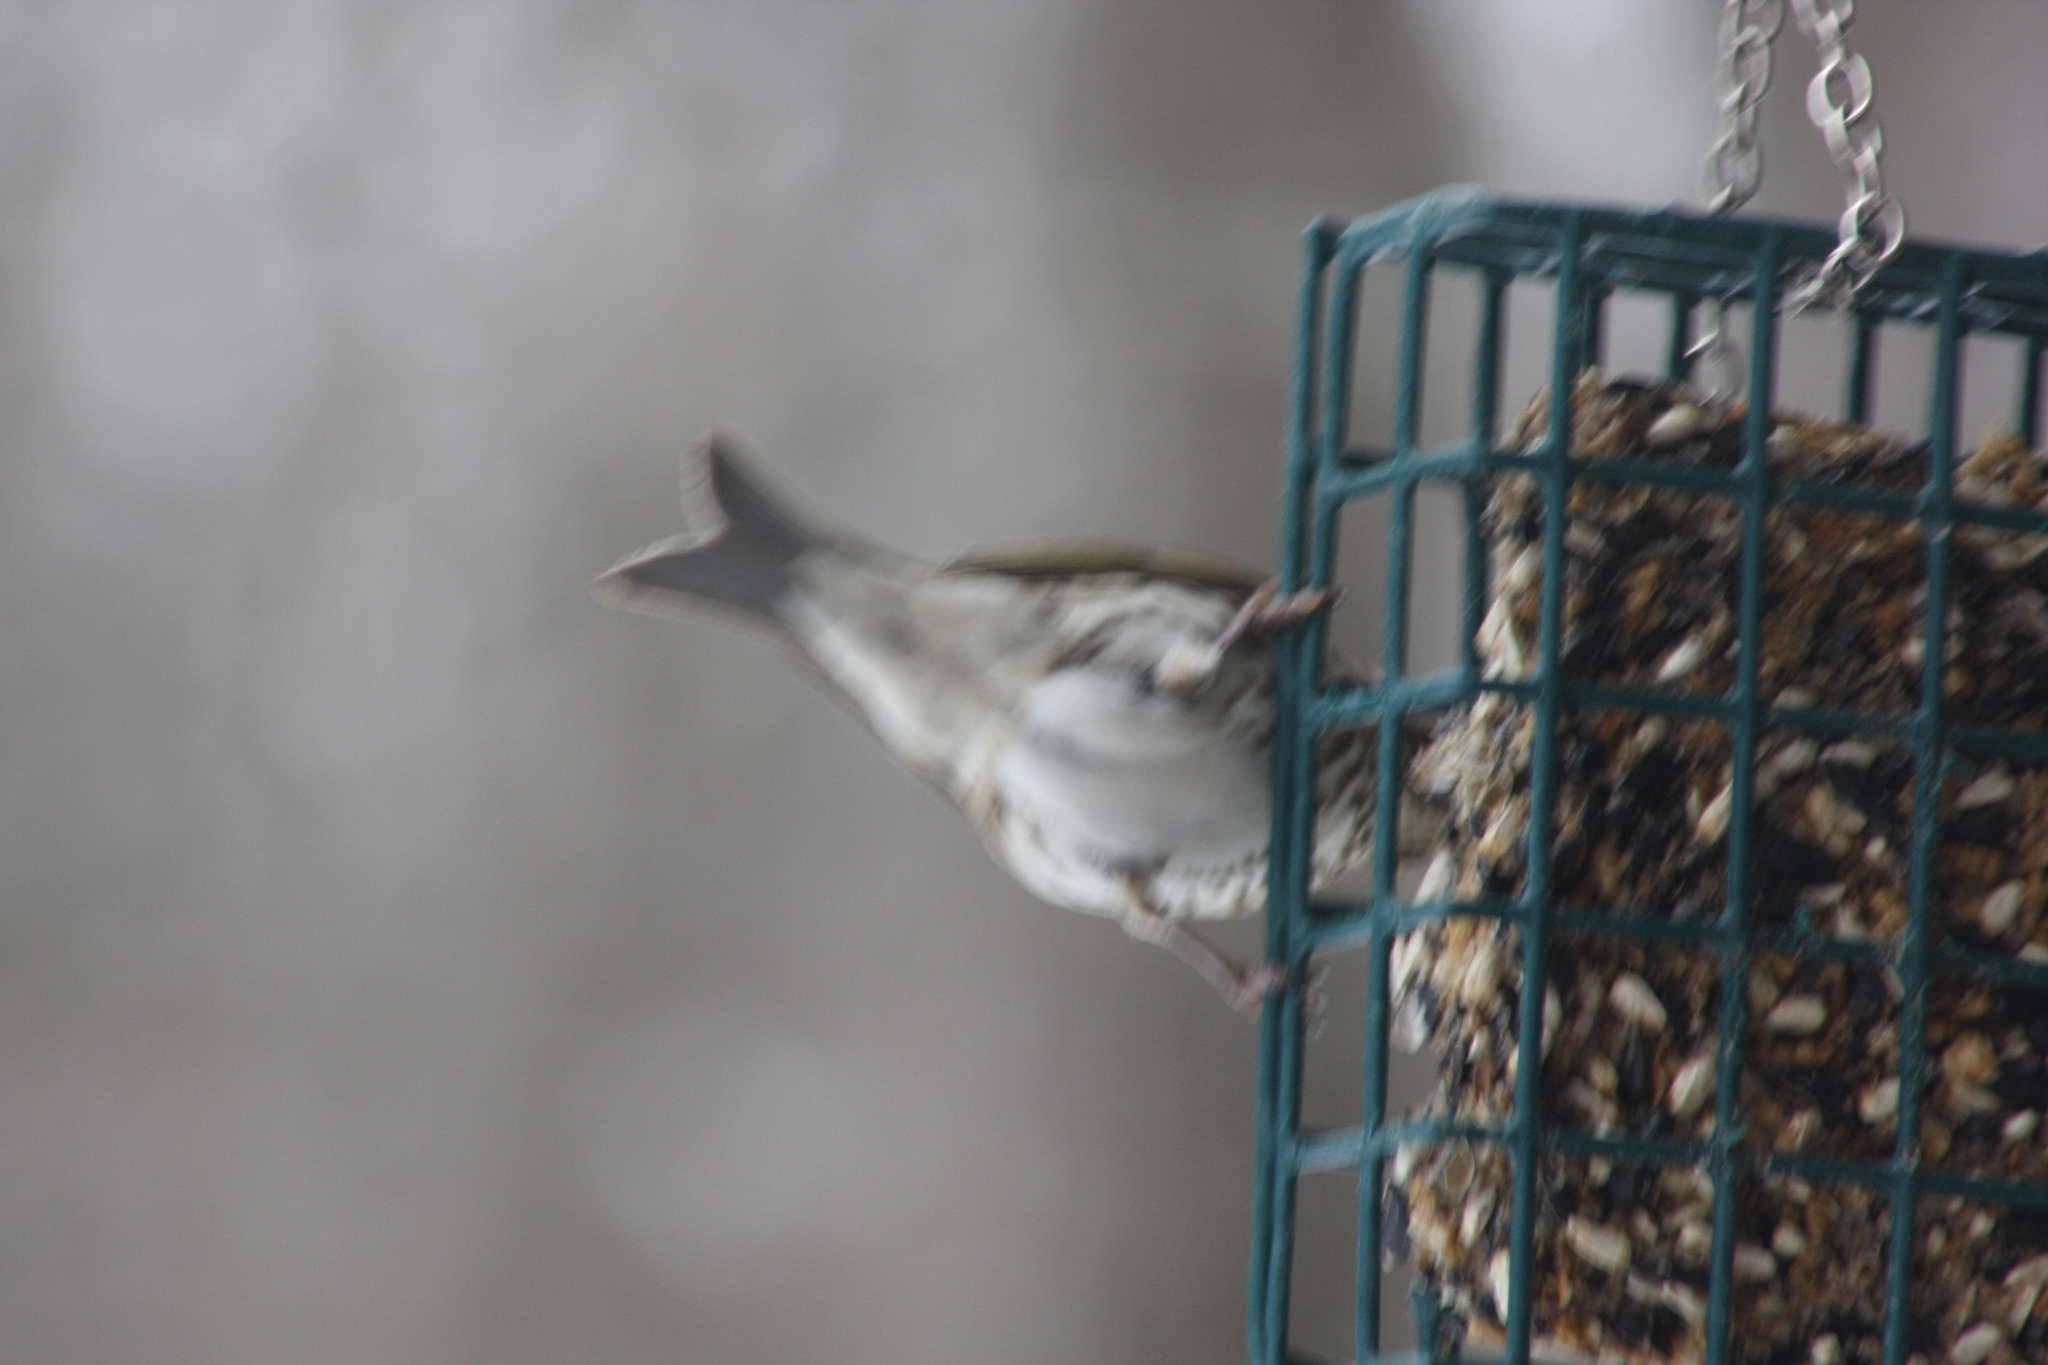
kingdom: Animalia
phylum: Chordata
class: Aves
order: Passeriformes
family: Fringillidae
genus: Haemorhous
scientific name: Haemorhous purpureus
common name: Purple finch
